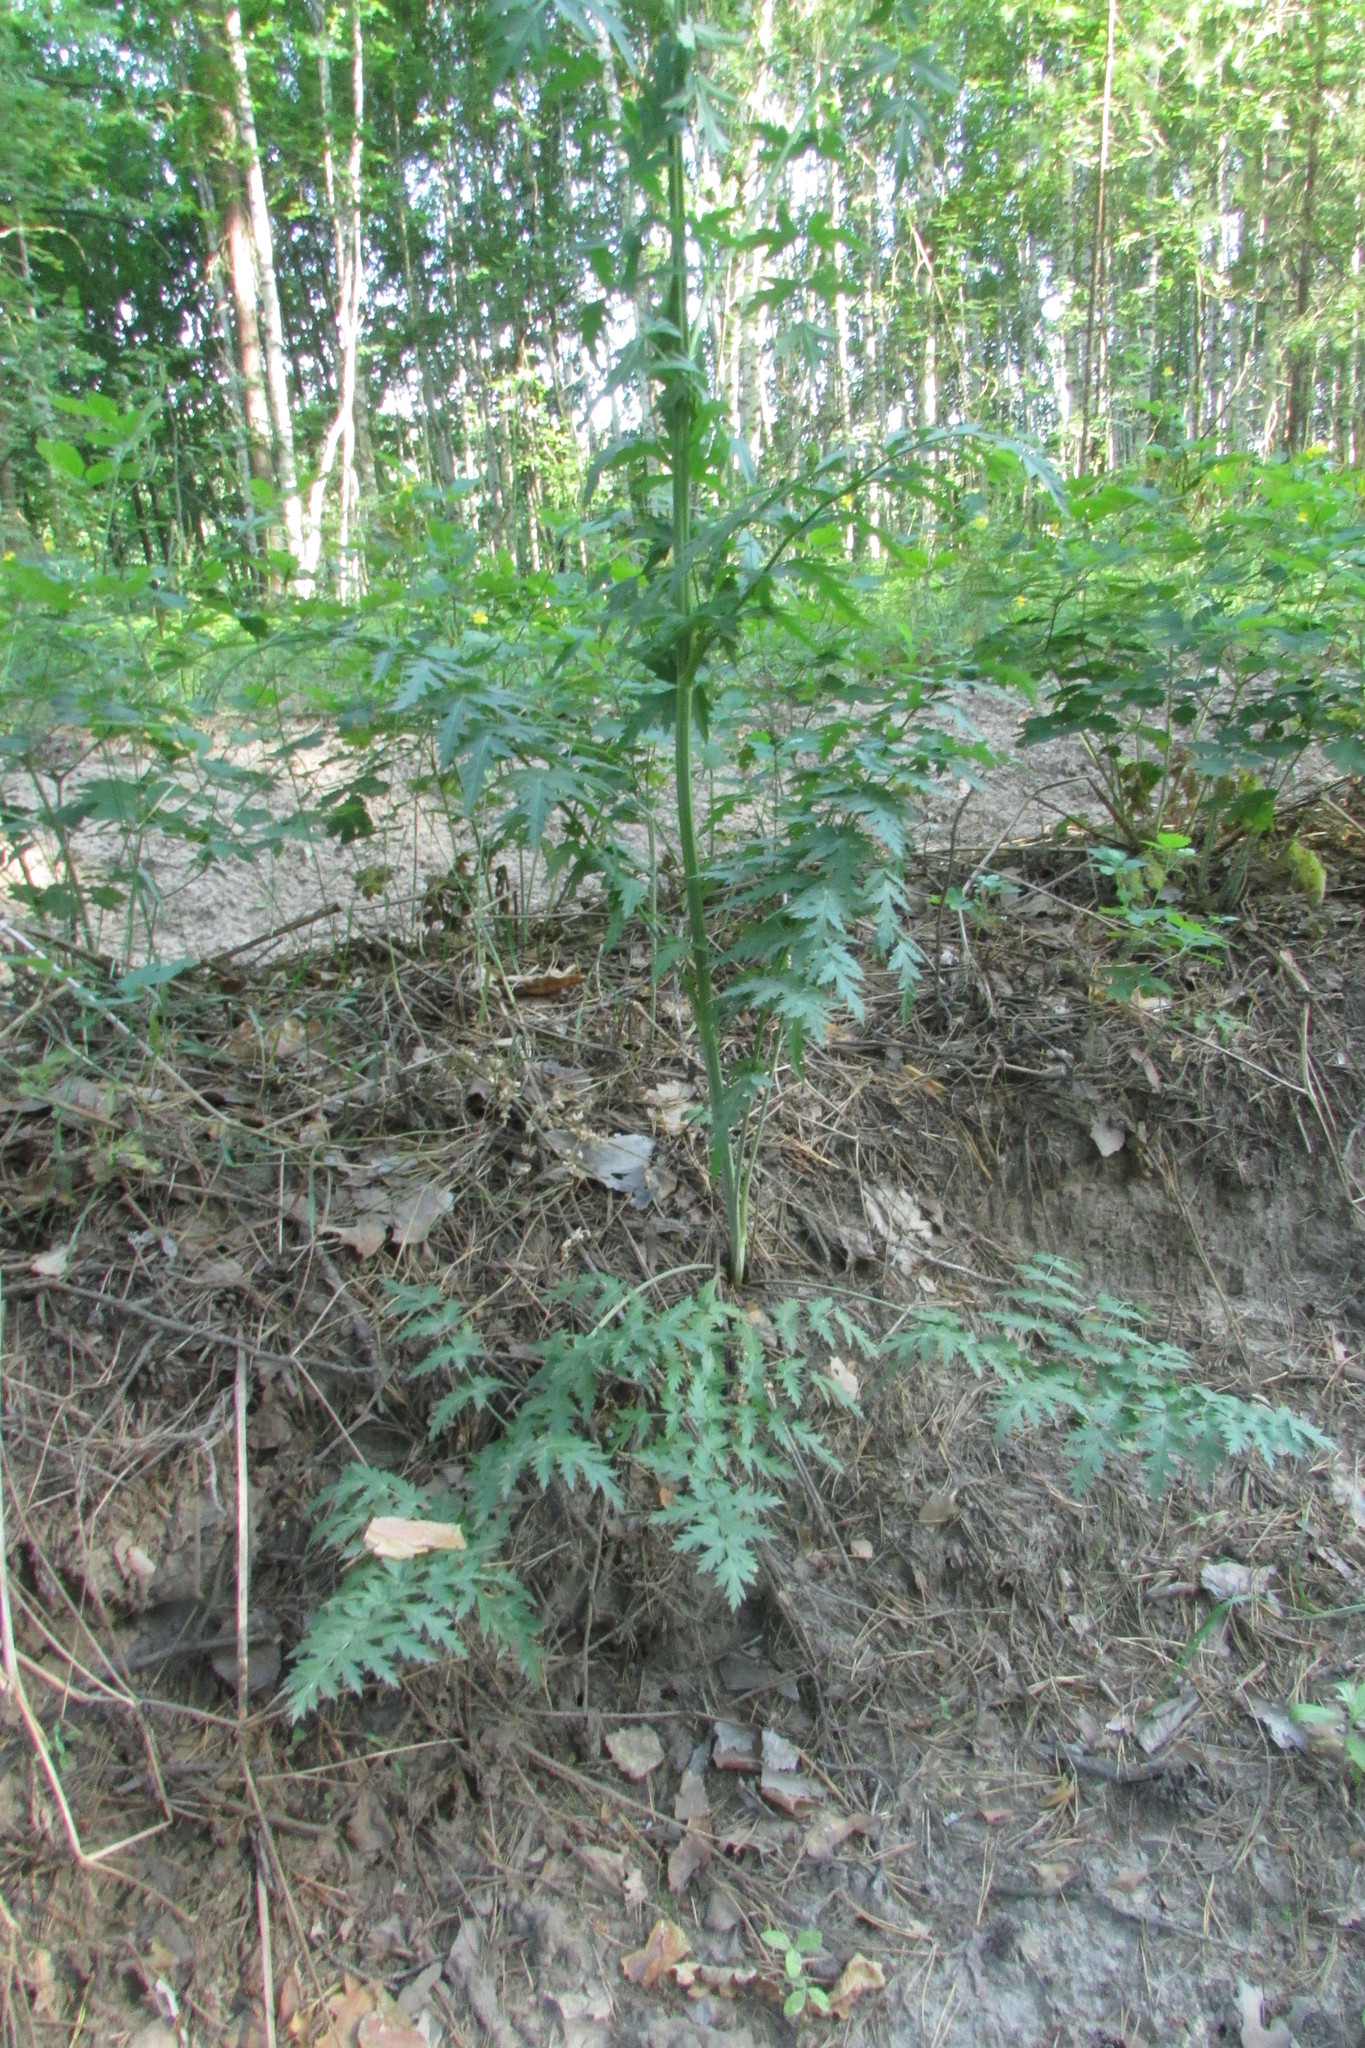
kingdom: Plantae
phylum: Tracheophyta
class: Magnoliopsida
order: Apiales
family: Apiaceae
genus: Seseli
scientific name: Seseli libanotis
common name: Mooncarrot
